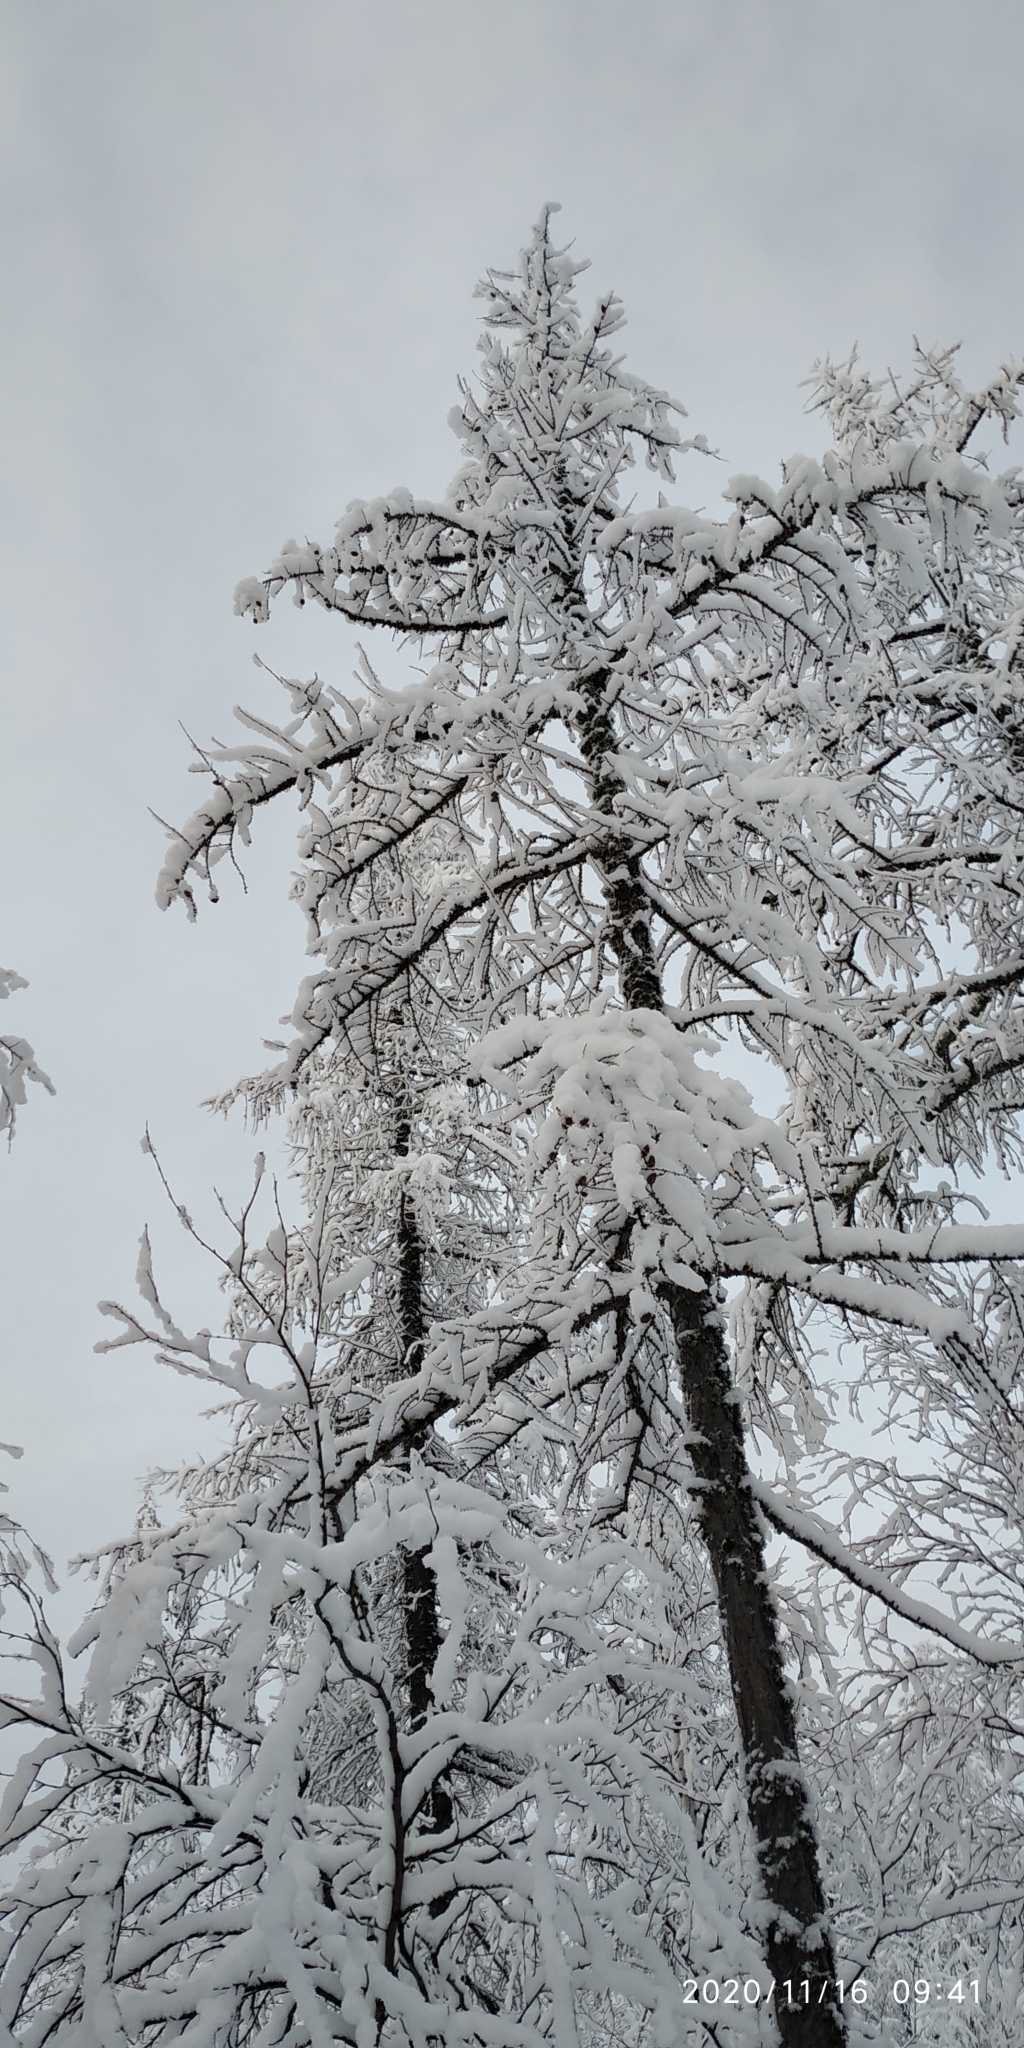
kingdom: Plantae
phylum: Tracheophyta
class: Pinopsida
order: Pinales
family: Pinaceae
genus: Larix
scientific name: Larix sibirica
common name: Siberian larch
